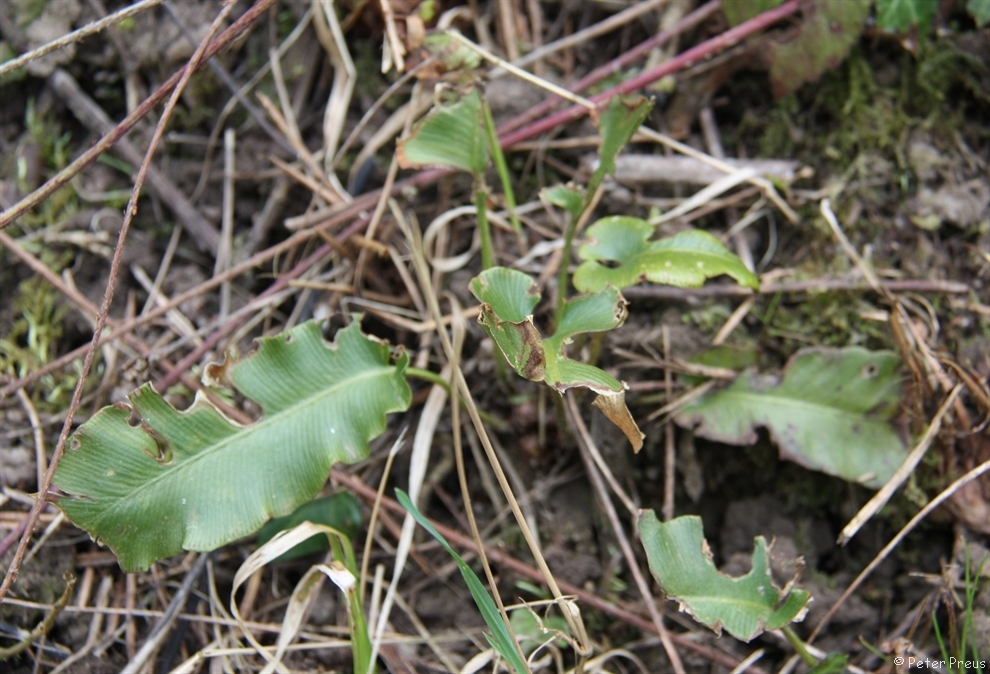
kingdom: Plantae
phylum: Tracheophyta
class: Polypodiopsida
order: Polypodiales
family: Aspleniaceae
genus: Asplenium
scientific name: Asplenium scolopendrium
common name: Hart's-tongue fern
